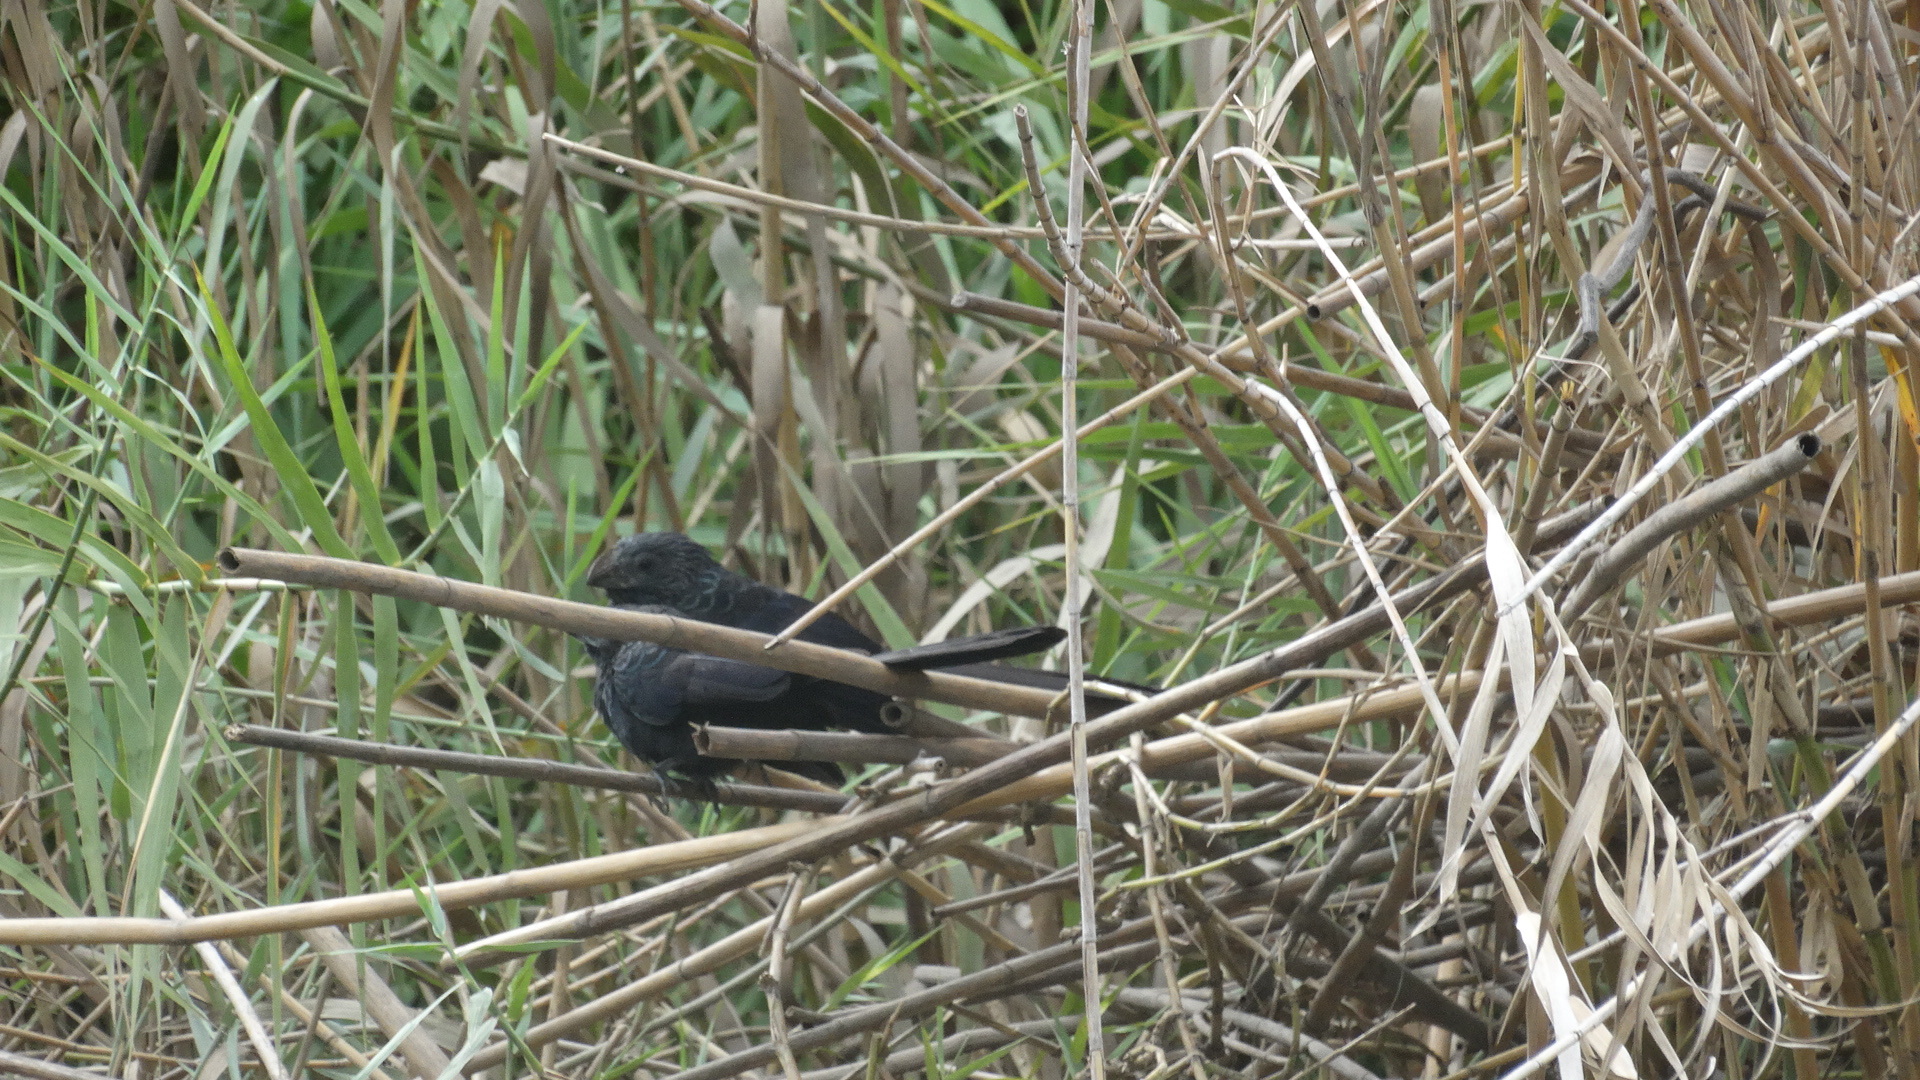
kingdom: Animalia
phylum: Chordata
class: Aves
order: Cuculiformes
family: Cuculidae
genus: Crotophaga
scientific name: Crotophaga sulcirostris
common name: Groove-billed ani
